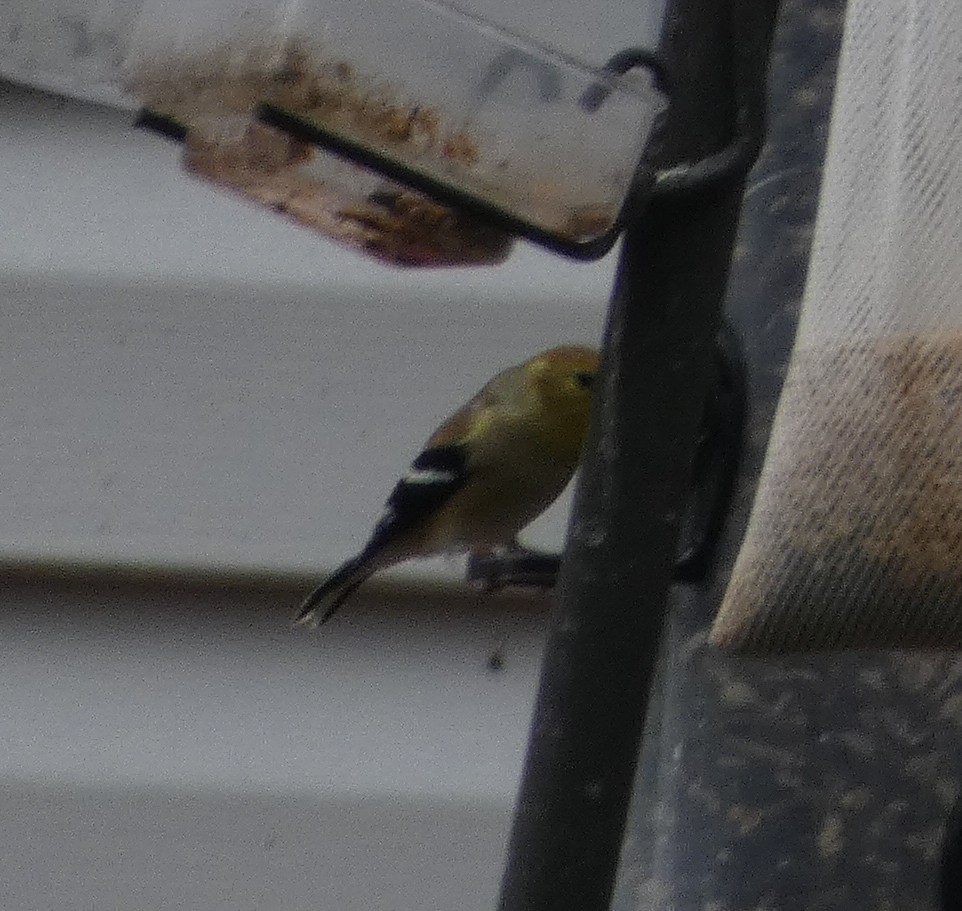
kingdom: Animalia
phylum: Chordata
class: Aves
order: Passeriformes
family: Fringillidae
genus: Spinus
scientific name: Spinus tristis
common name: American goldfinch
